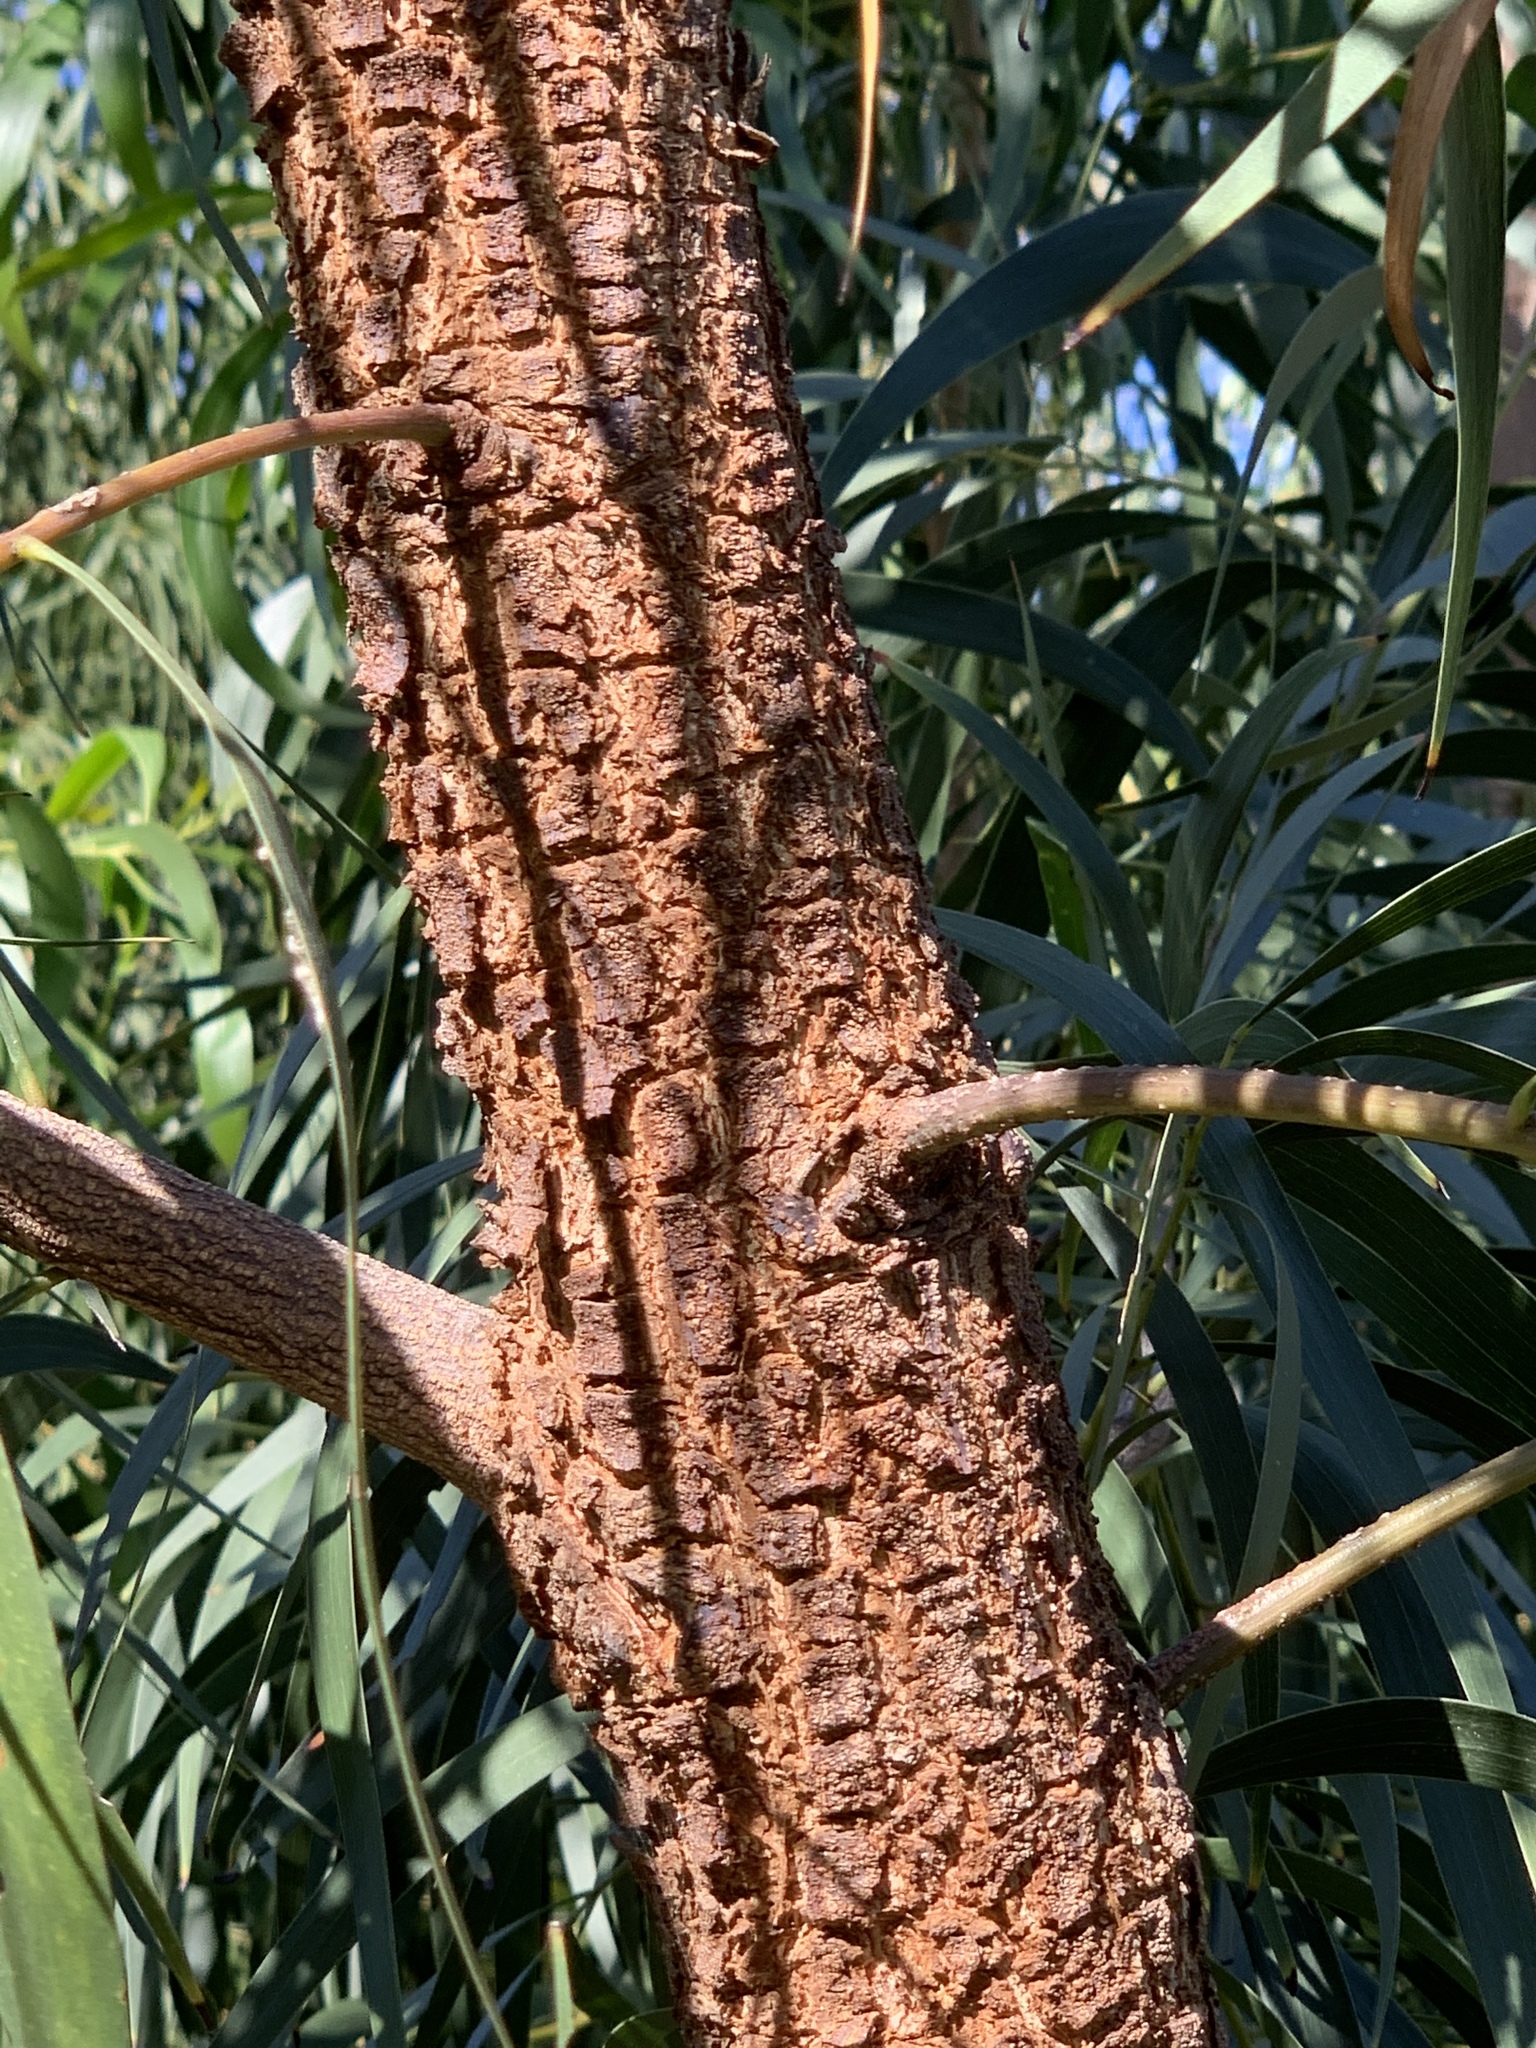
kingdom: Plantae
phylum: Tracheophyta
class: Magnoliopsida
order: Fabales
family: Fabaceae
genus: Acacia
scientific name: Acacia implexa
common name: Black wattle
